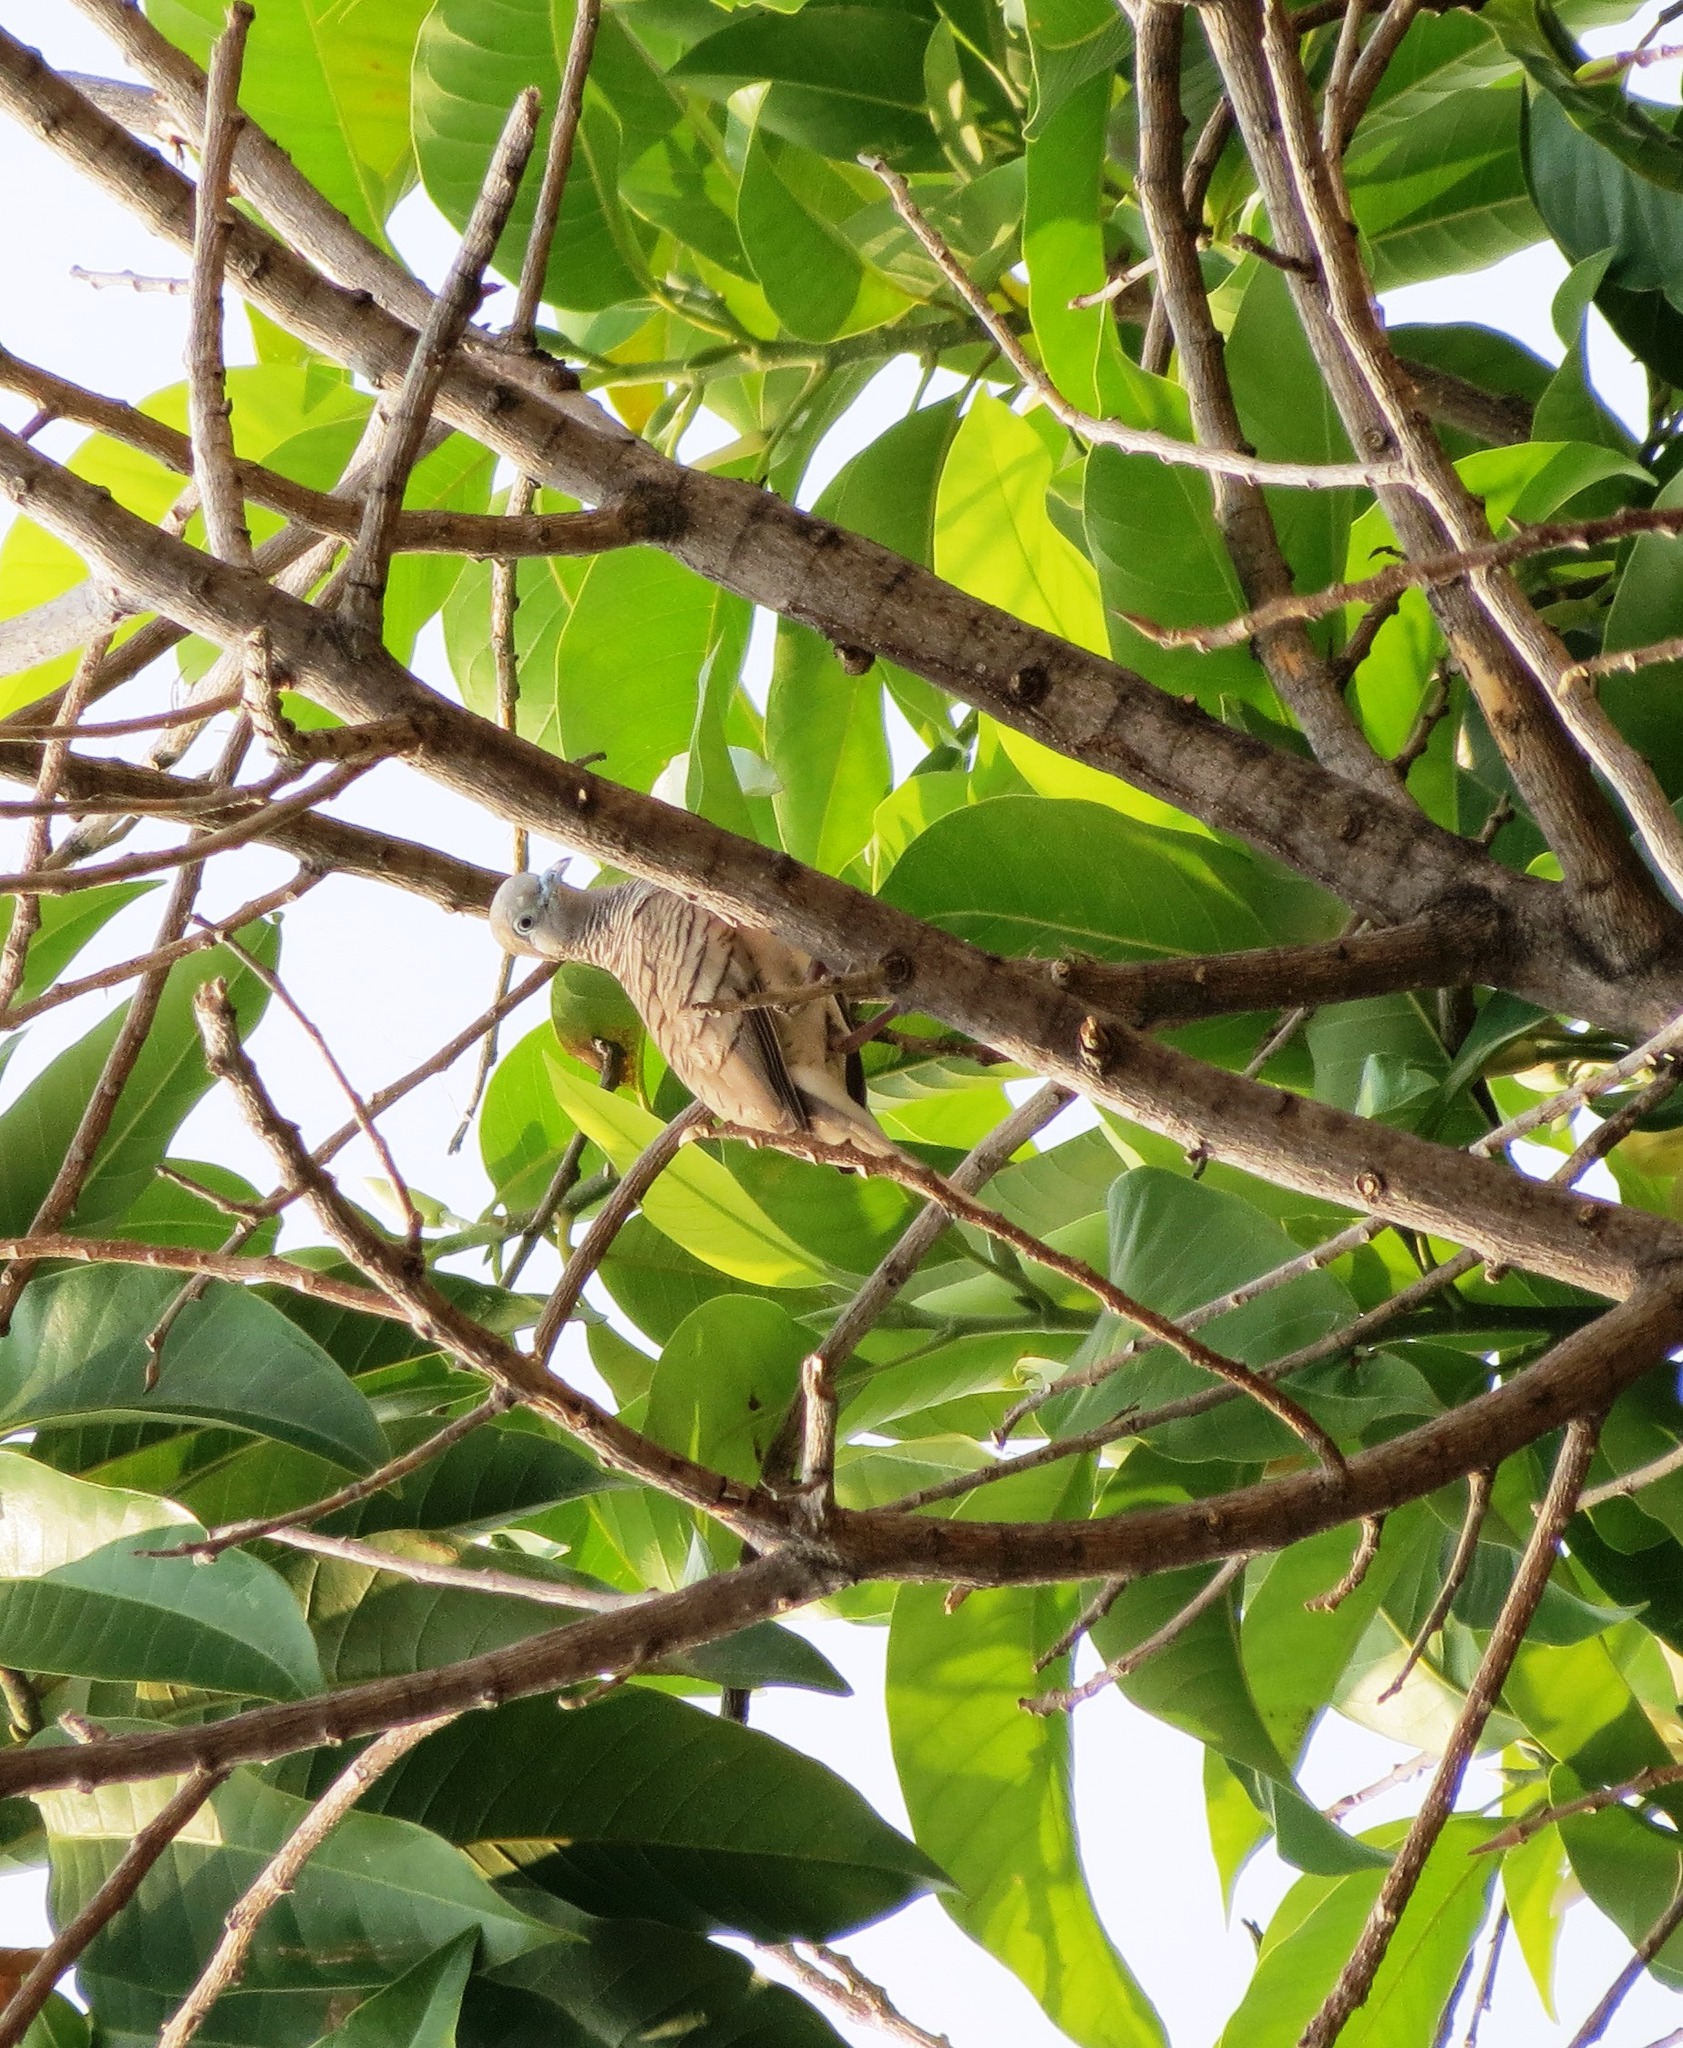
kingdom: Animalia
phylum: Chordata
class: Aves
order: Columbiformes
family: Columbidae
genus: Geopelia
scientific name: Geopelia striata
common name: Zebra dove
